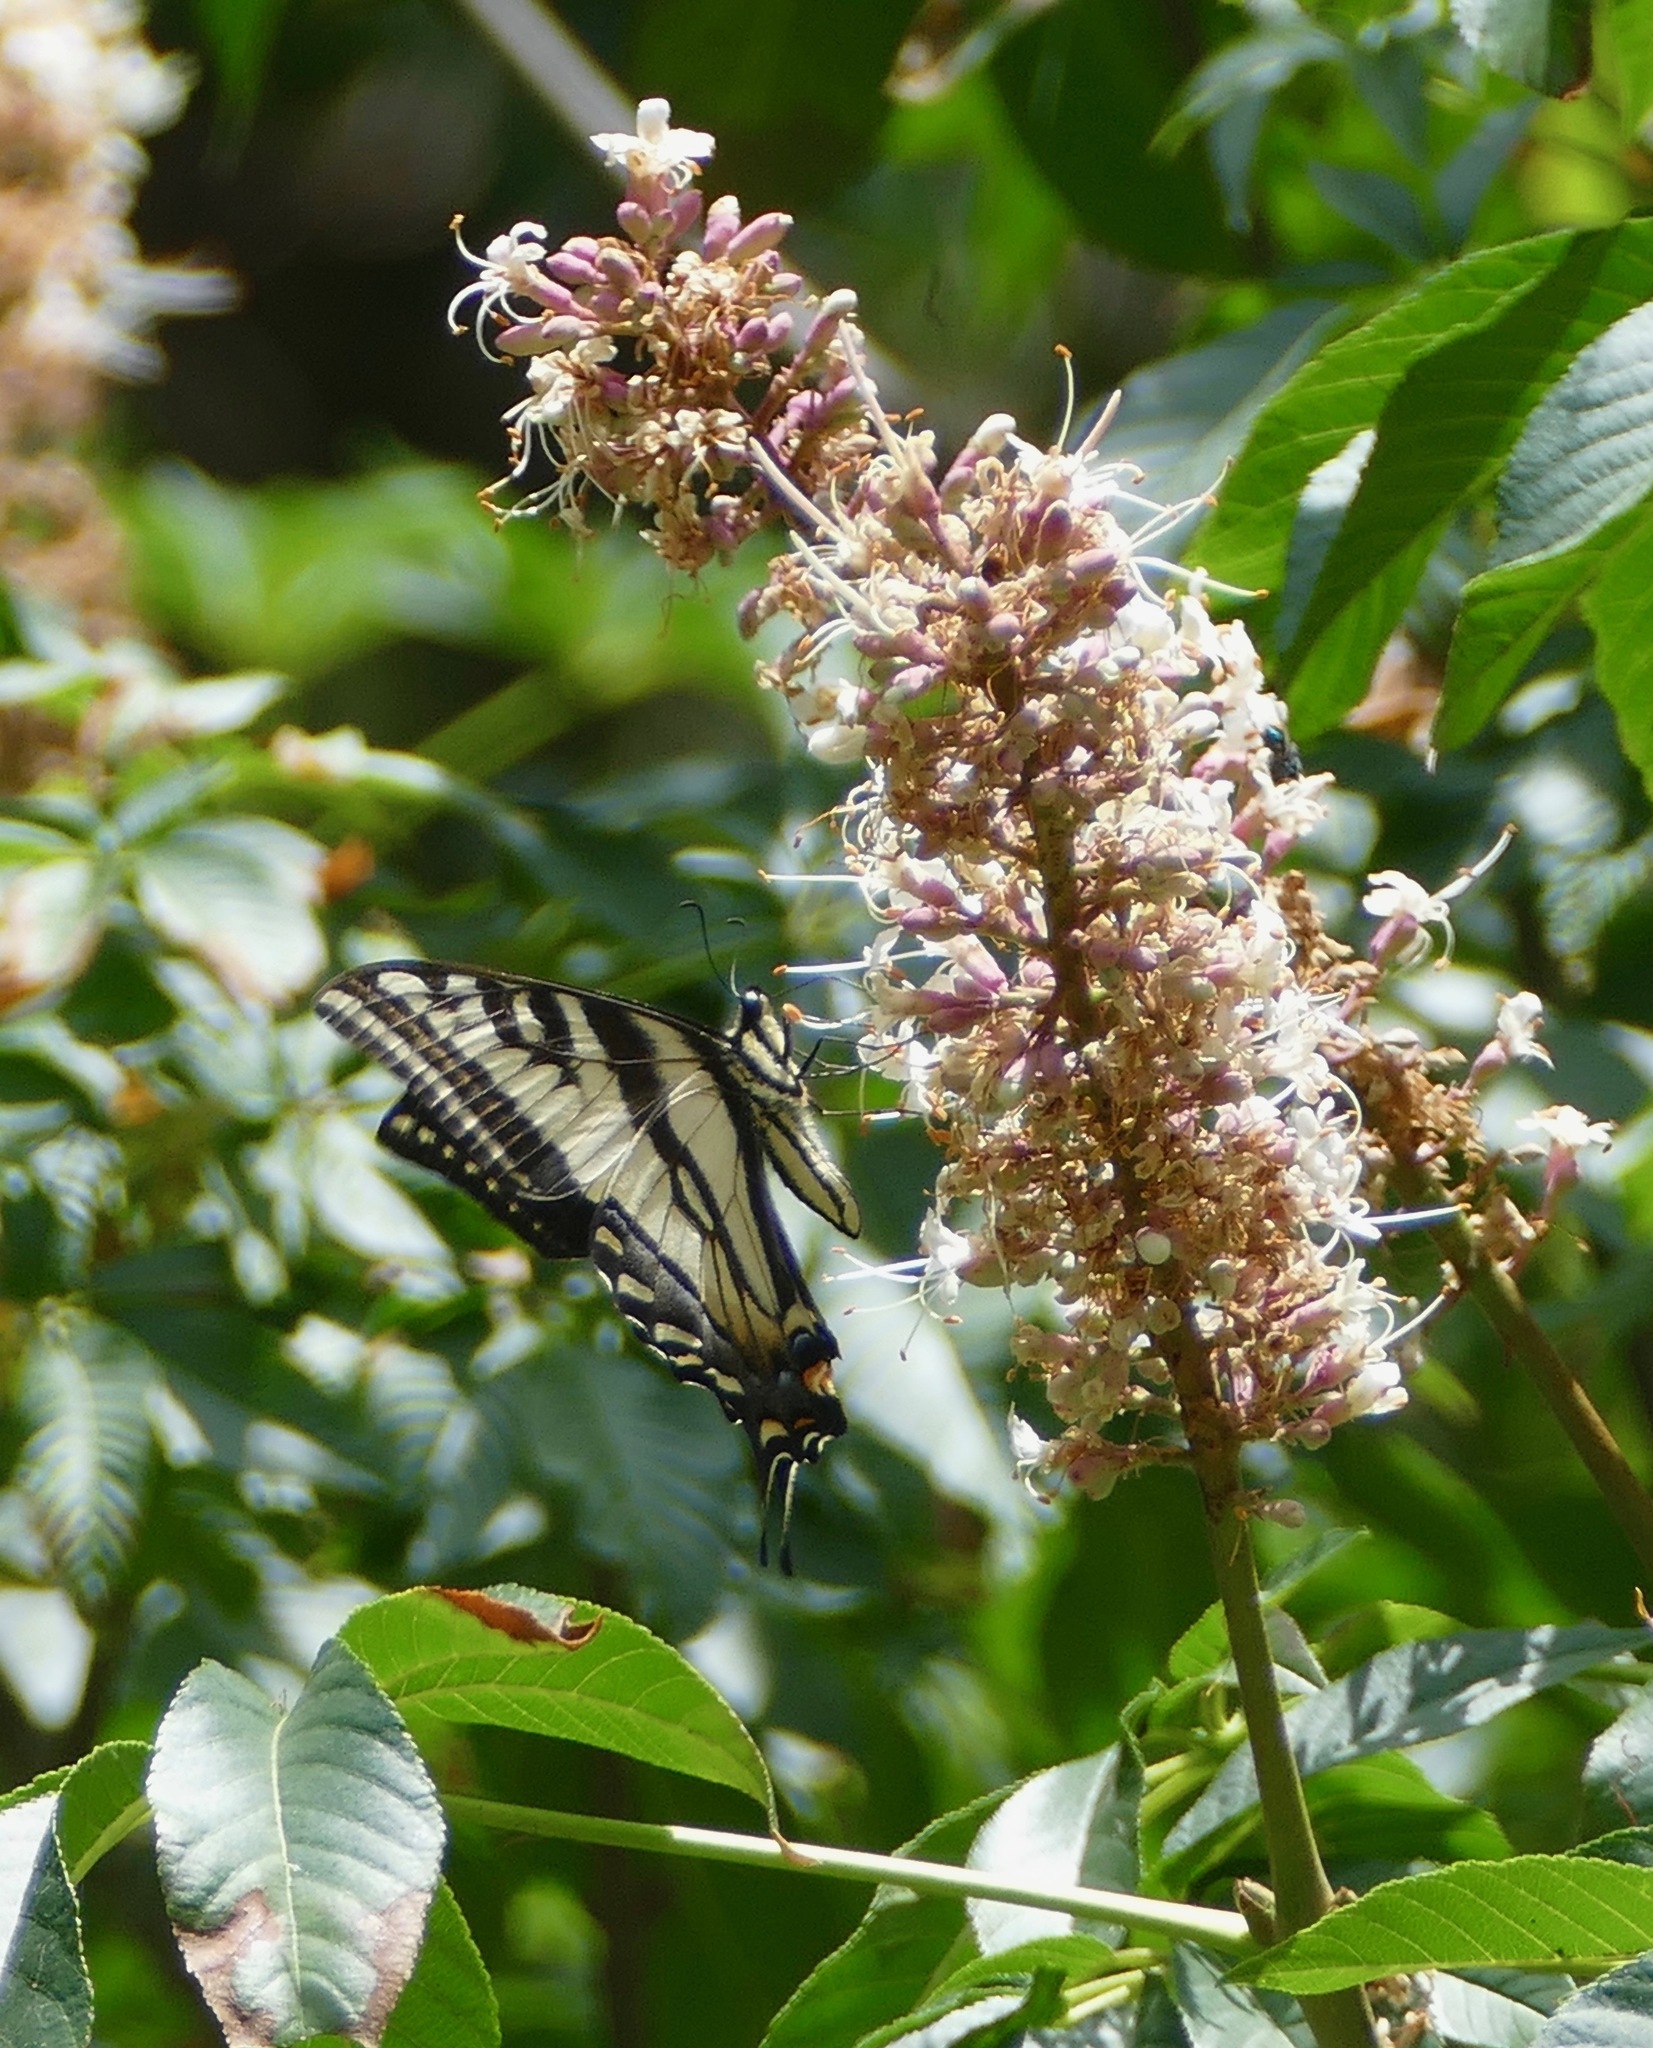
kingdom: Animalia
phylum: Arthropoda
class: Insecta
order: Lepidoptera
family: Papilionidae
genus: Papilio
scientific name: Papilio rutulus
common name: Western tiger swallowtail
